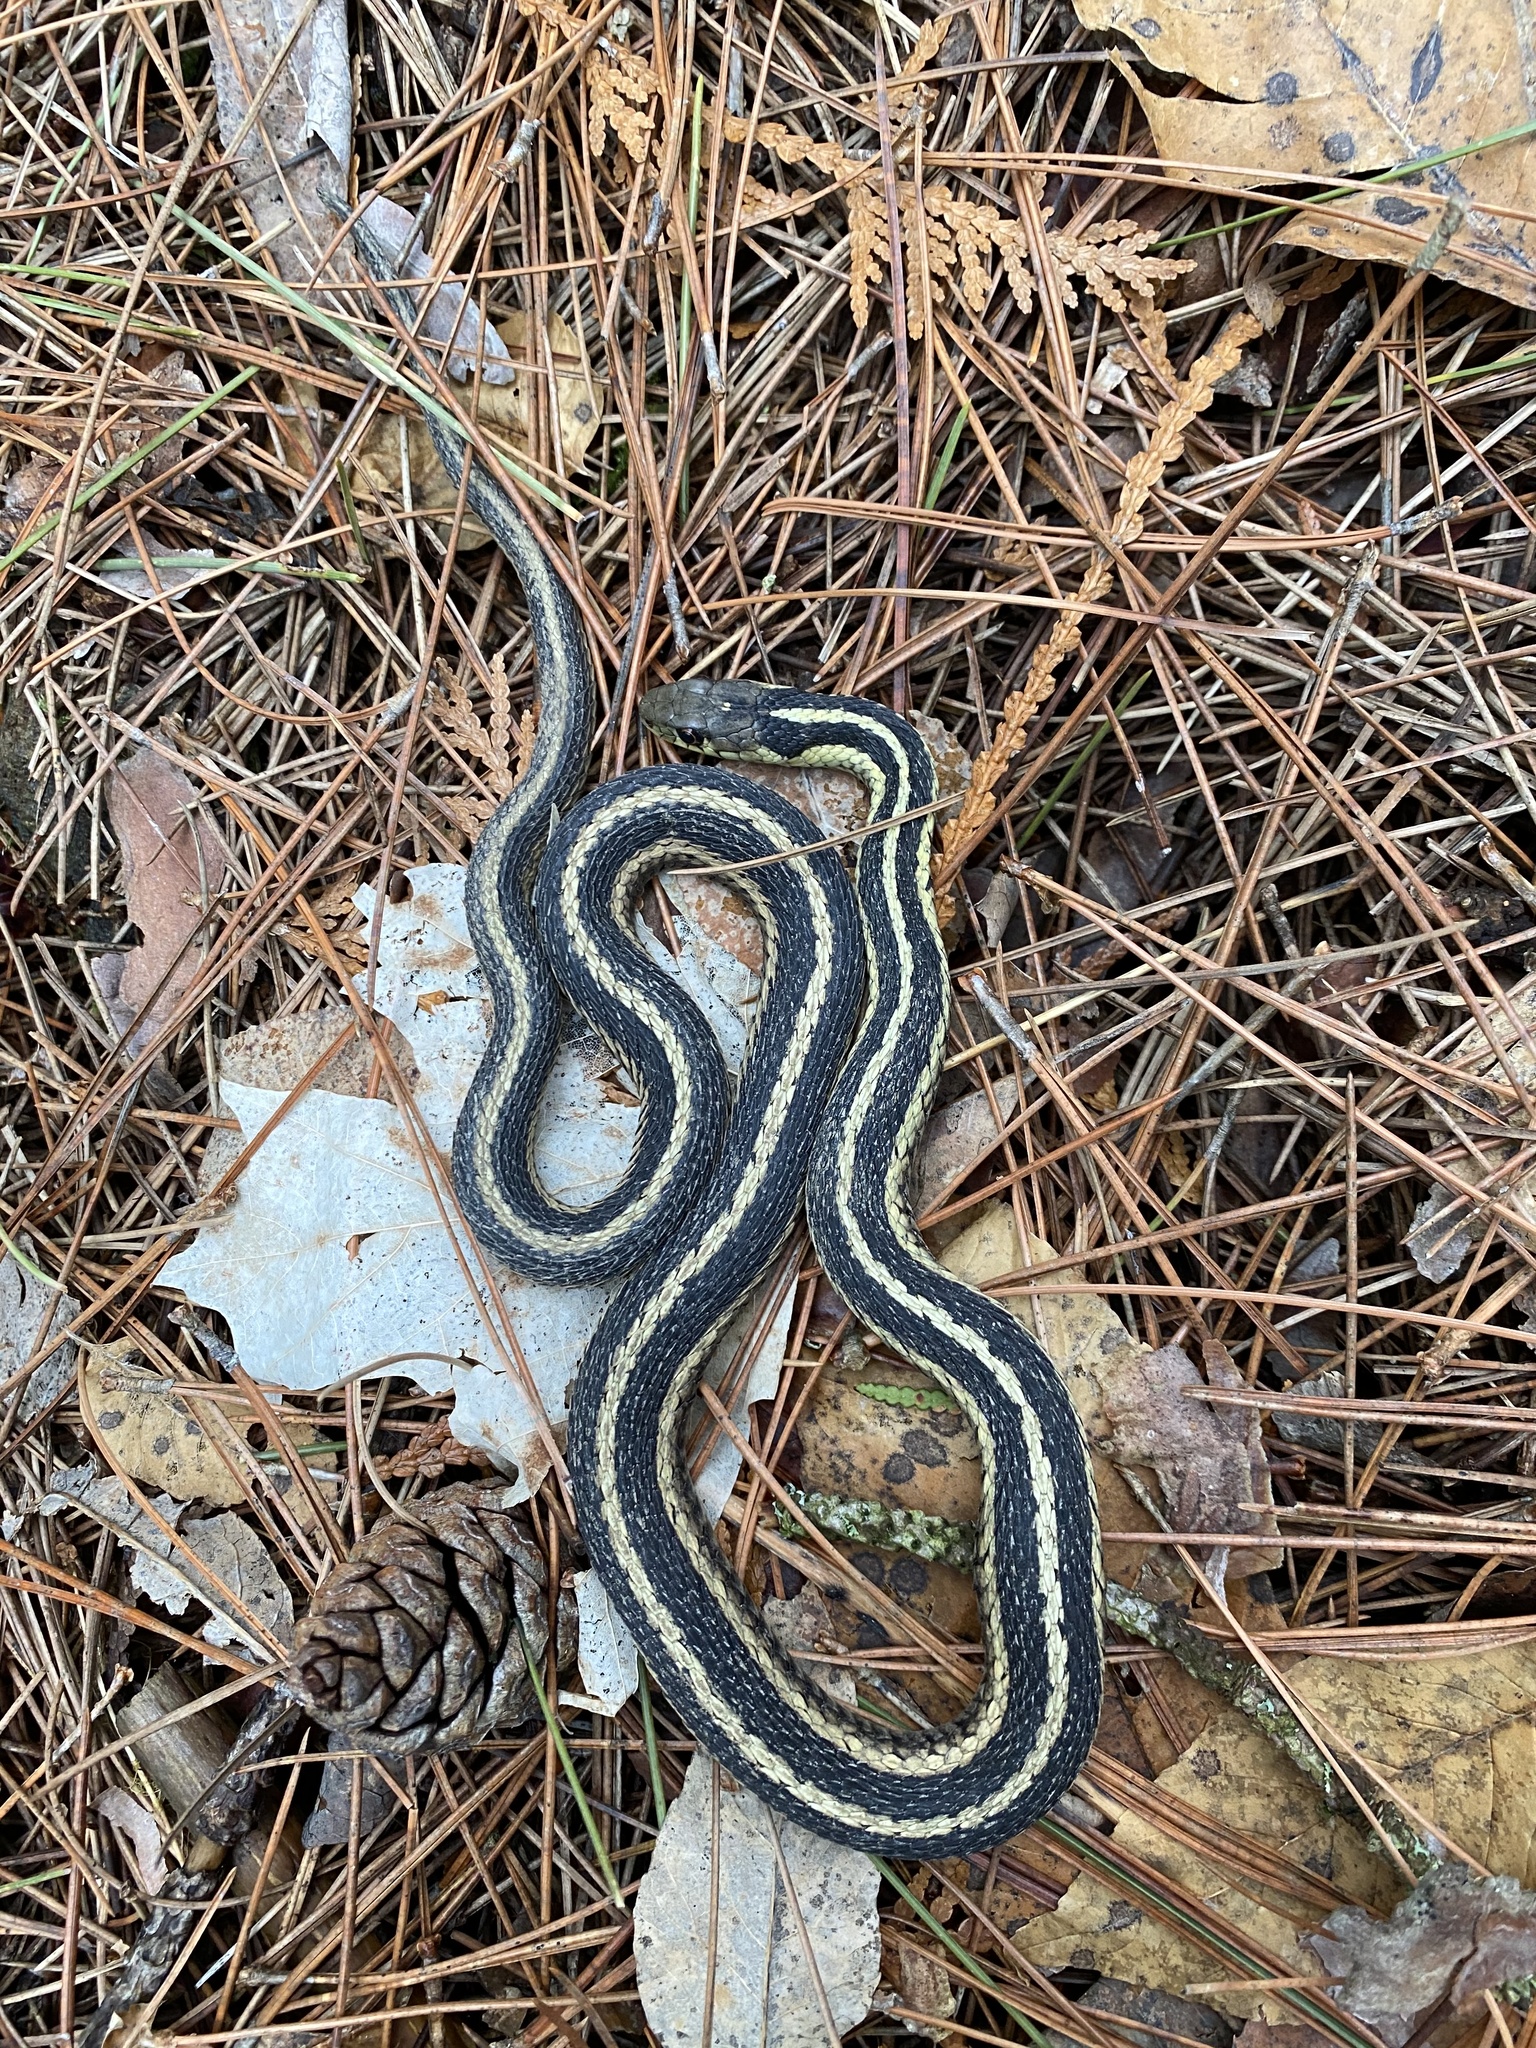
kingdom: Animalia
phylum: Chordata
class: Squamata
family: Colubridae
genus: Thamnophis
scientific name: Thamnophis sirtalis
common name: Common garter snake
